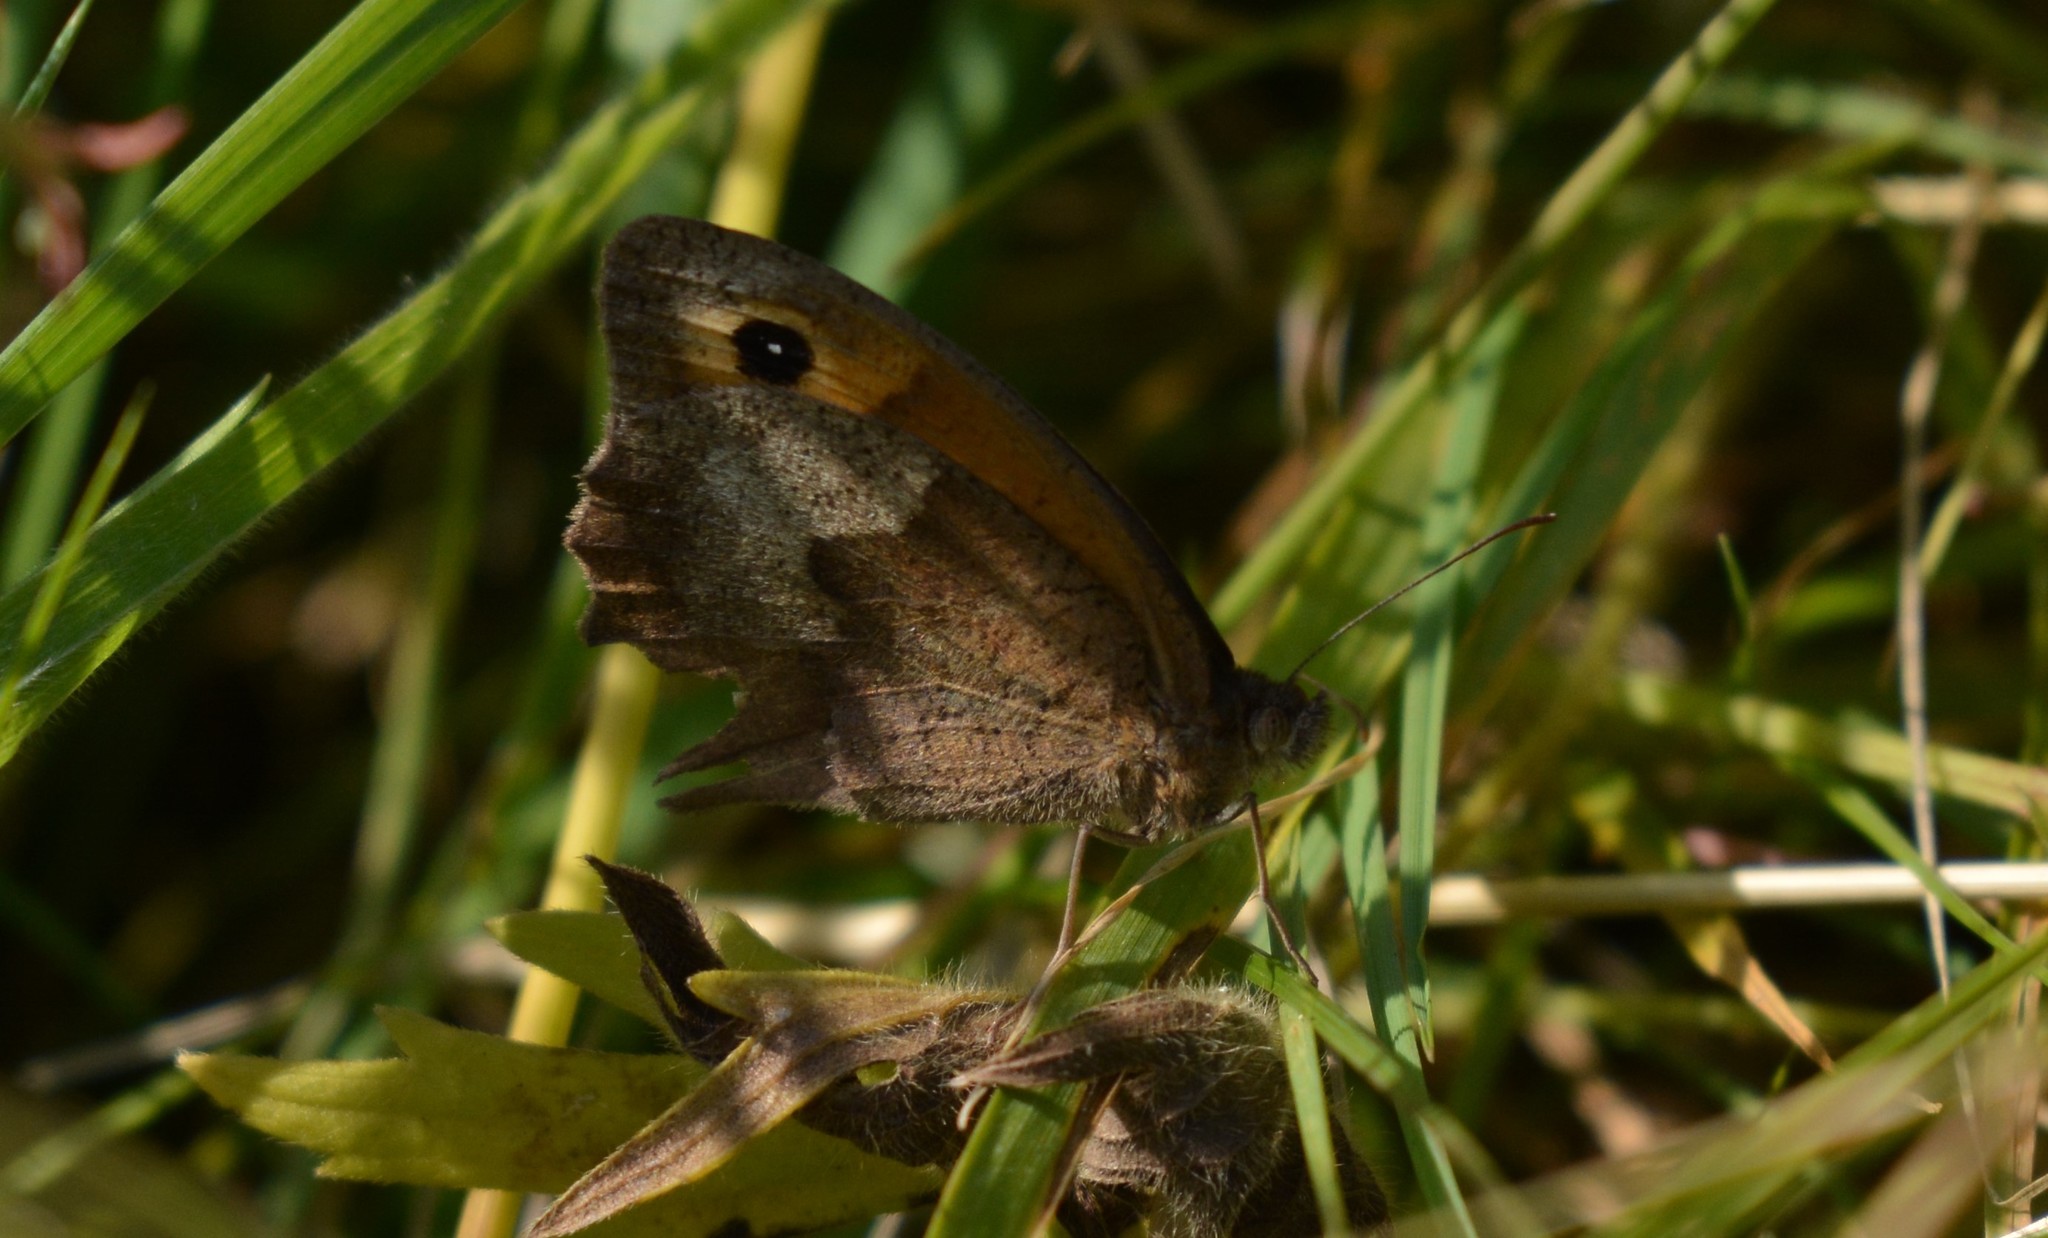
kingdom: Animalia
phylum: Arthropoda
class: Insecta
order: Lepidoptera
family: Nymphalidae
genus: Maniola
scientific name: Maniola jurtina
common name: Meadow brown
